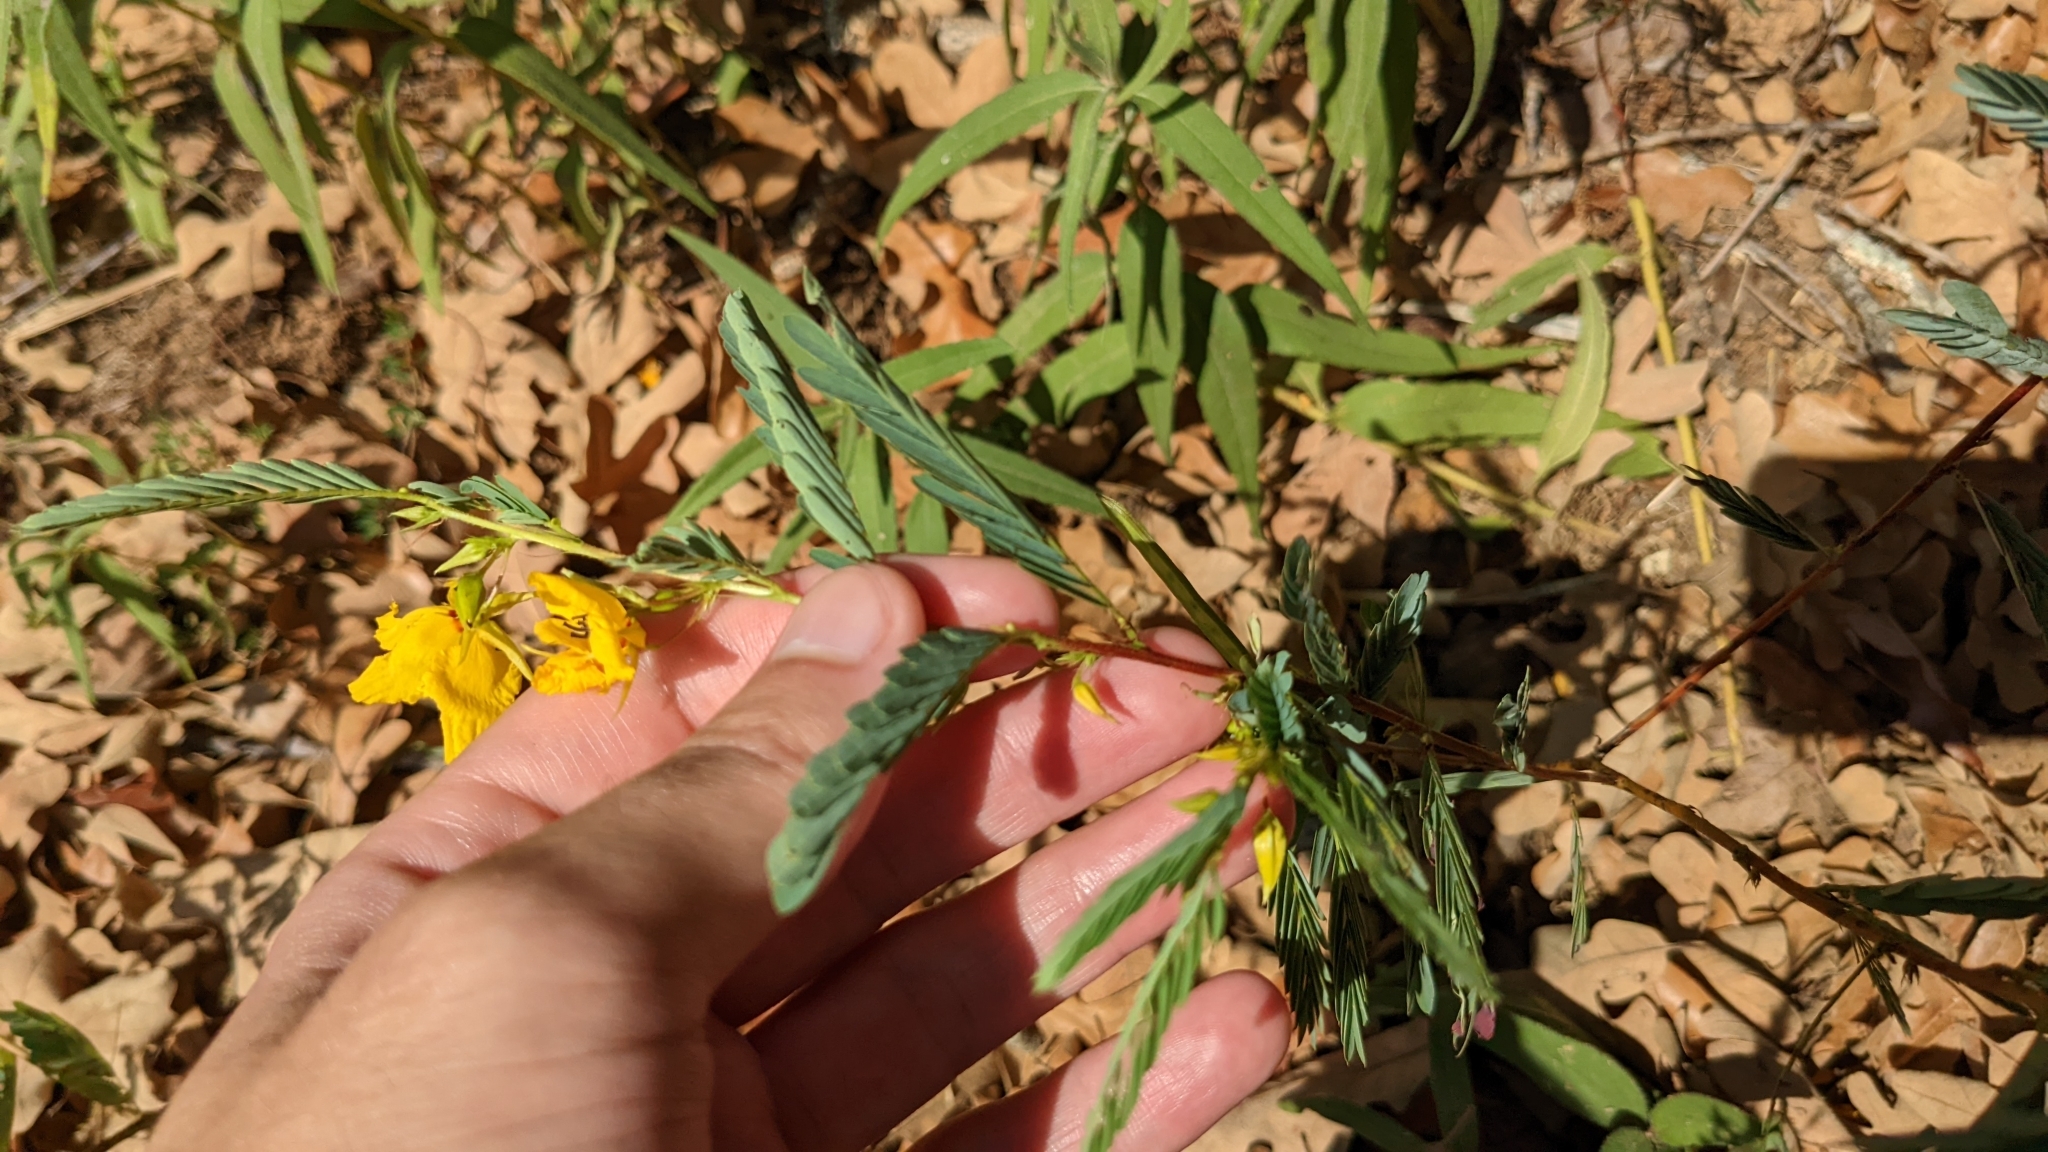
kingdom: Plantae
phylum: Tracheophyta
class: Magnoliopsida
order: Fabales
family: Fabaceae
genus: Chamaecrista
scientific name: Chamaecrista fasciculata
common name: Golden cassia
